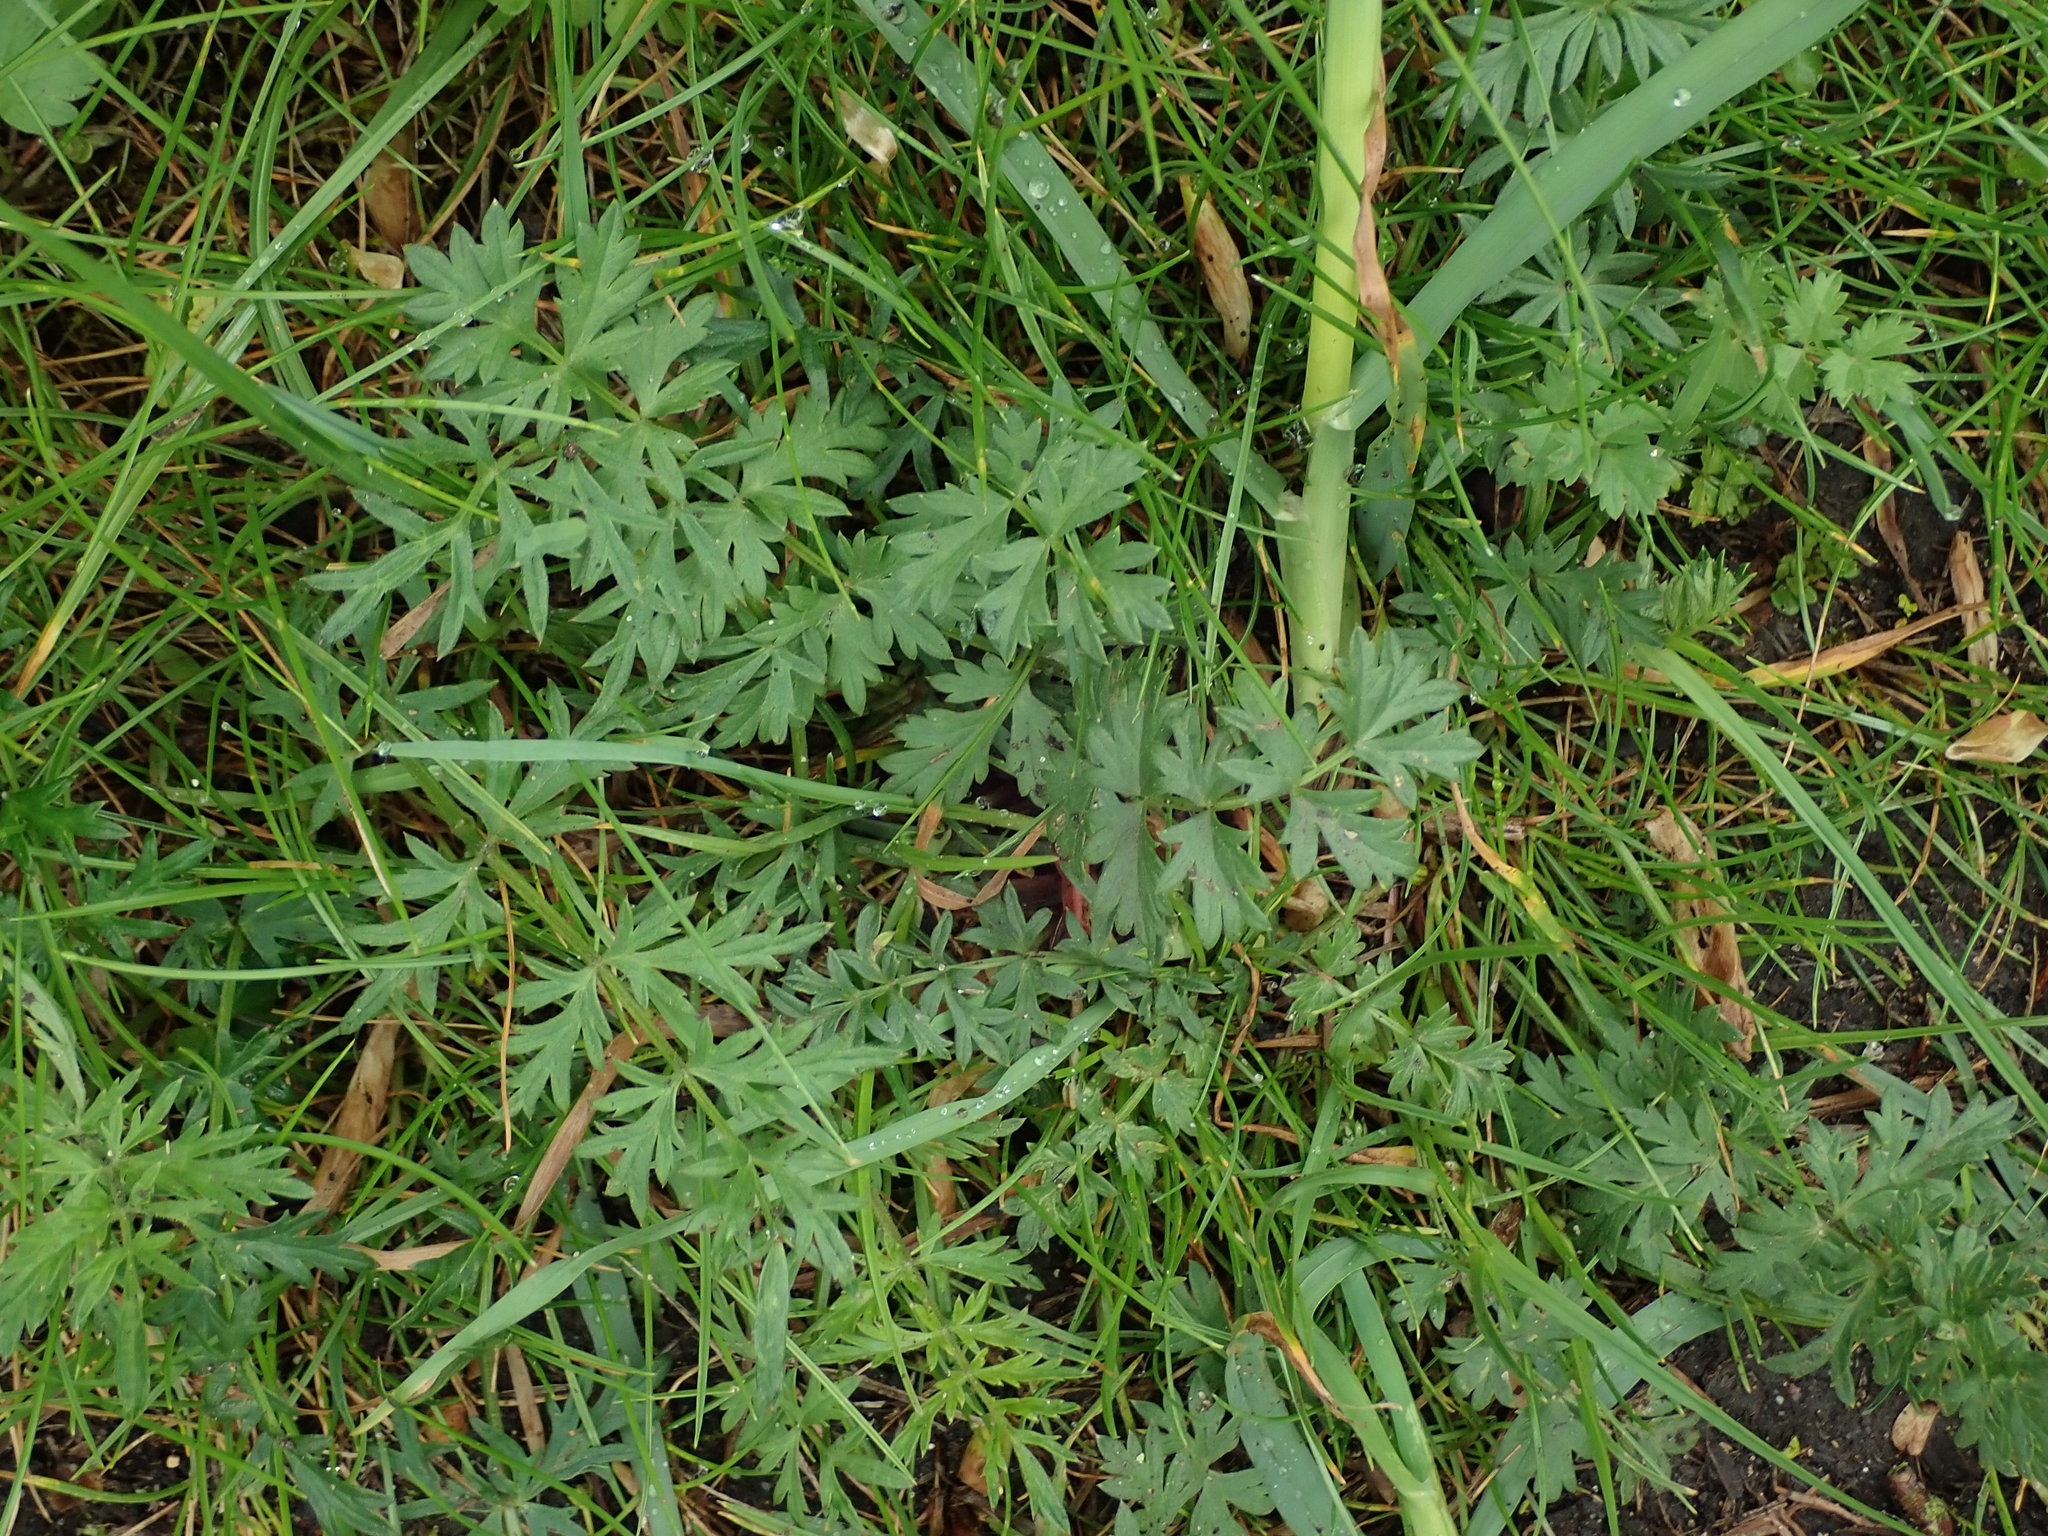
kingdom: Plantae
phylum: Tracheophyta
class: Magnoliopsida
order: Apiales
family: Apiaceae
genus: Pimpinella
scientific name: Pimpinella saxifraga
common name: Burnet-saxifrage
